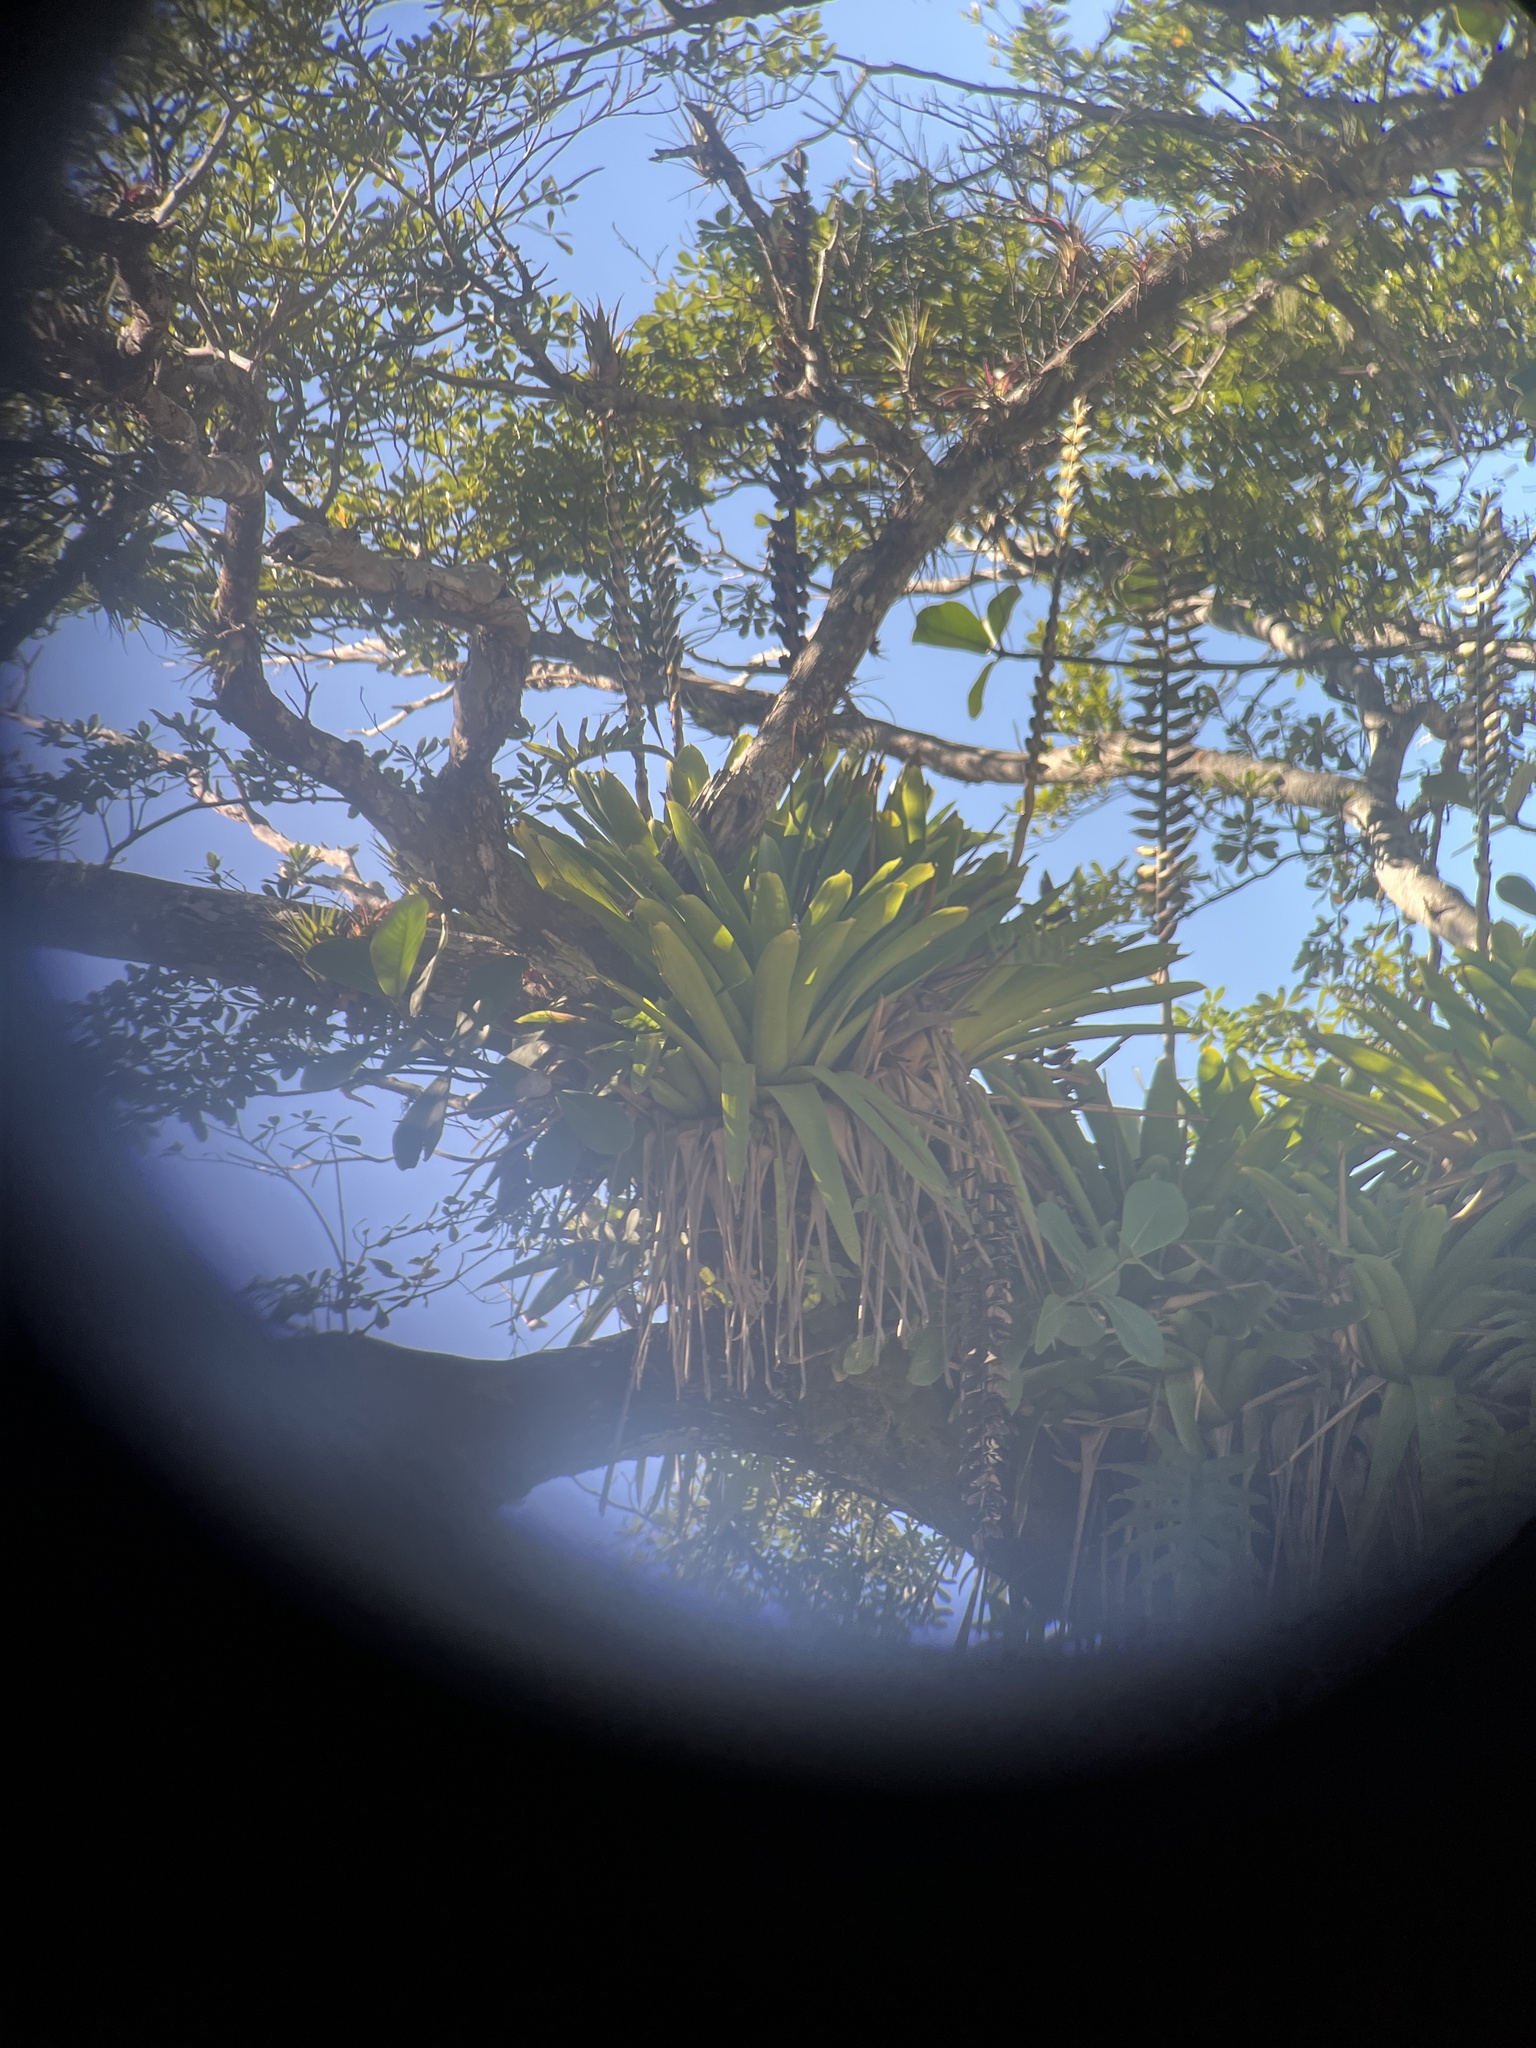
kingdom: Plantae
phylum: Tracheophyta
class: Liliopsida
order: Poales
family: Bromeliaceae
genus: Vriesea
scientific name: Vriesea macrostachya
